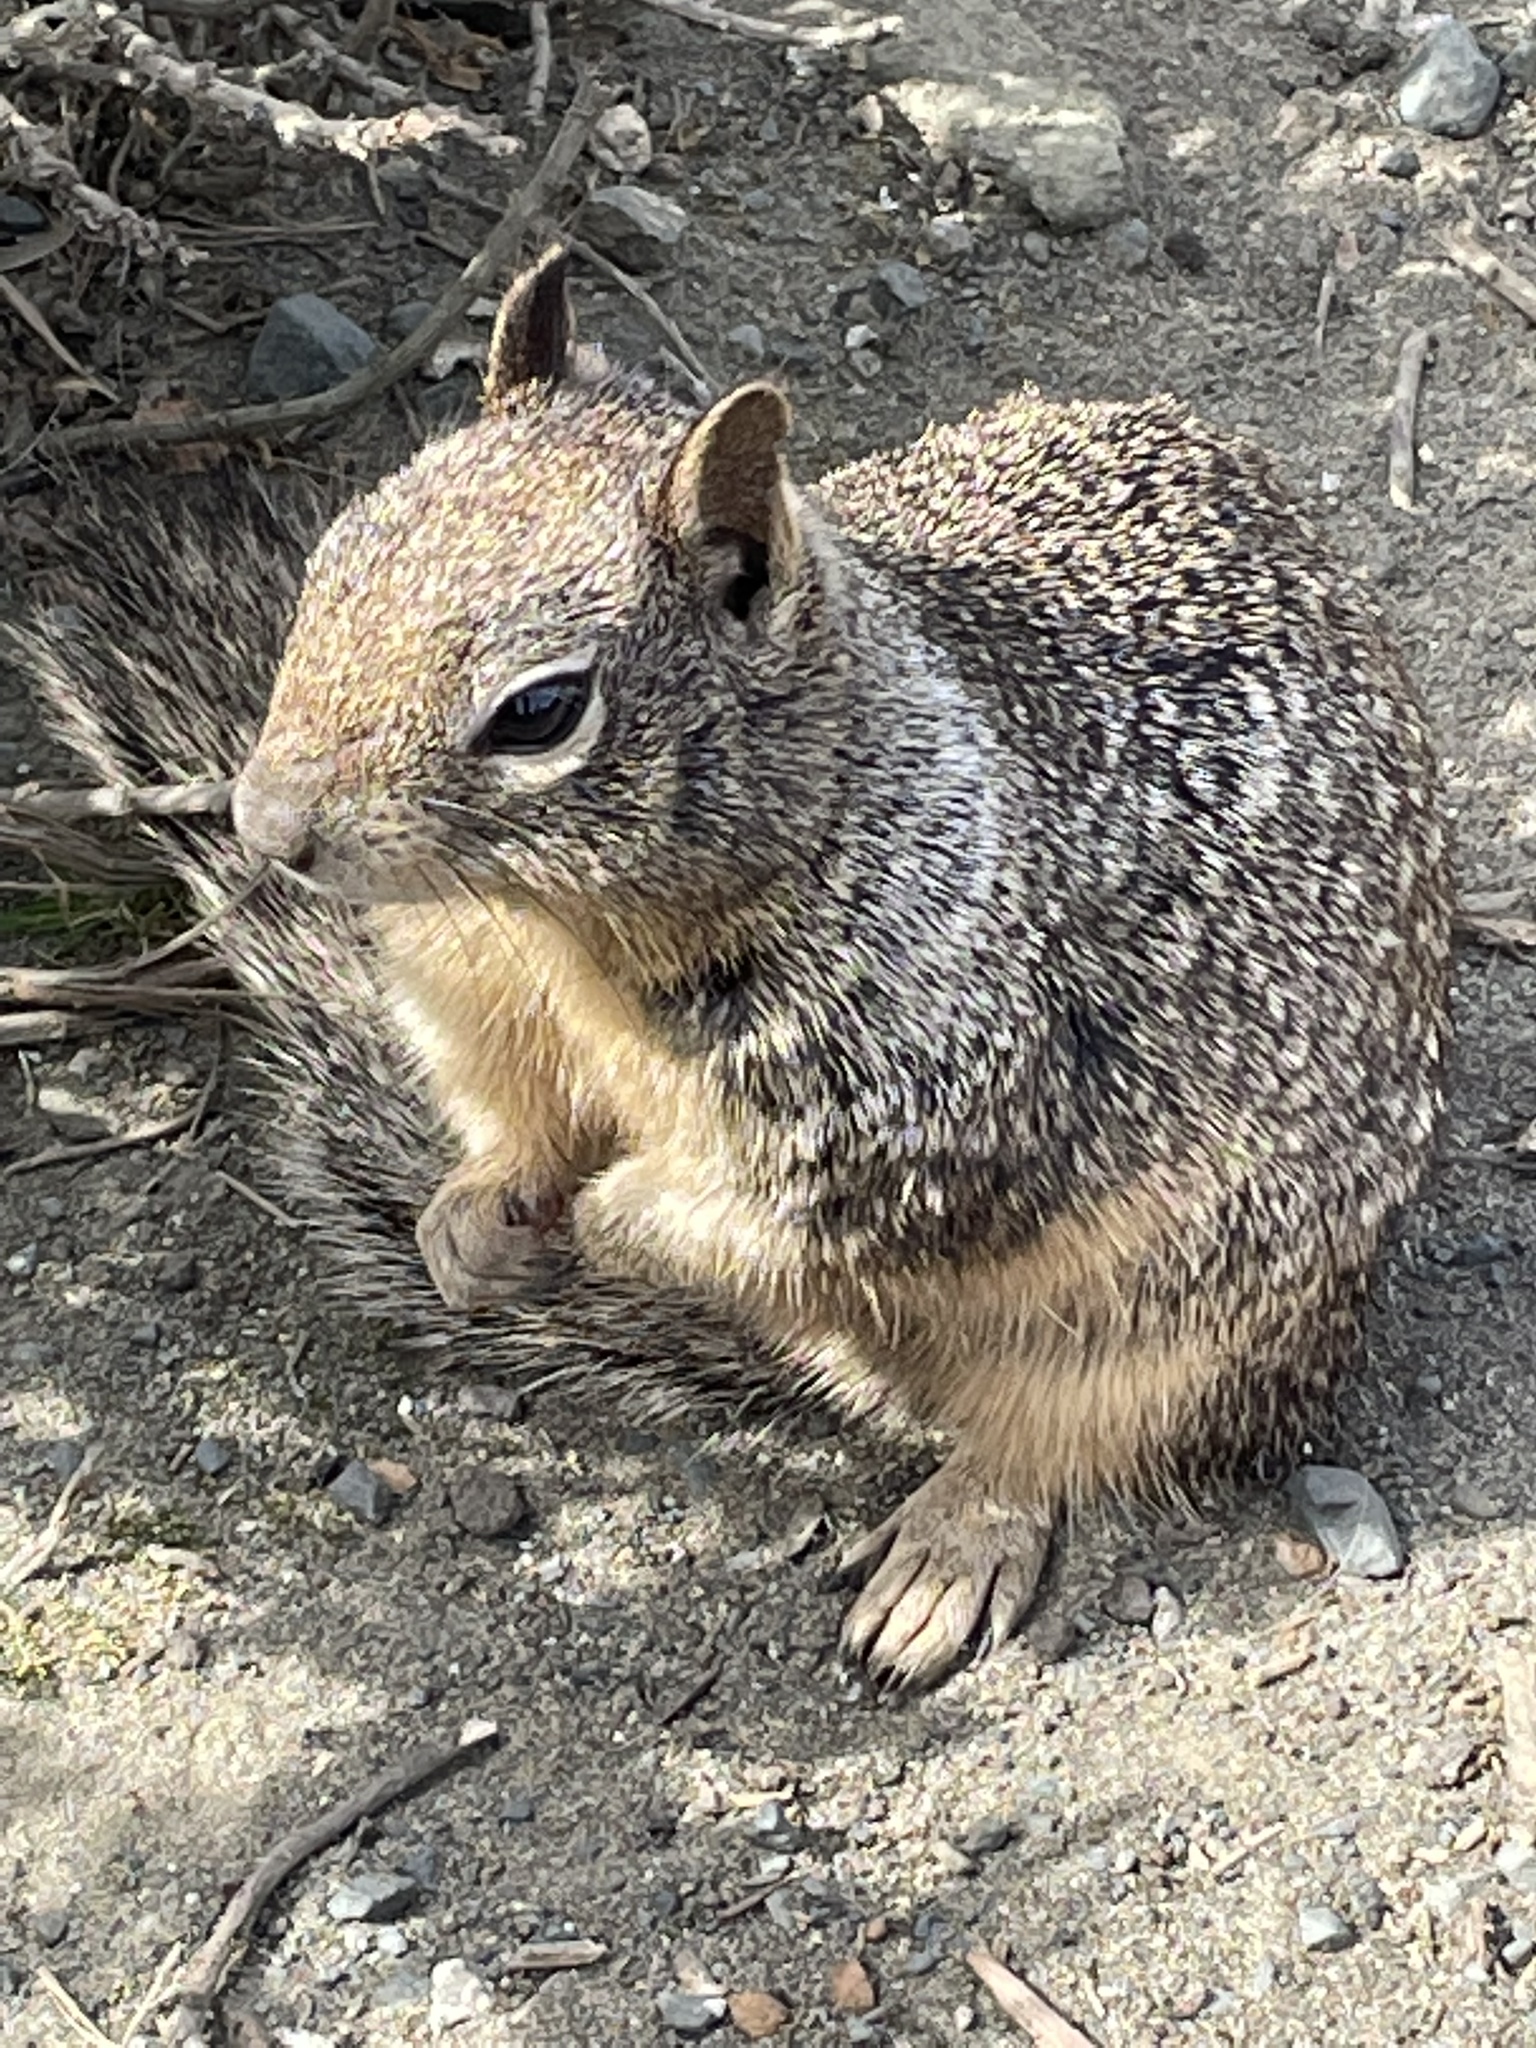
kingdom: Animalia
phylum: Chordata
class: Mammalia
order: Rodentia
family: Sciuridae
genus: Otospermophilus
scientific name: Otospermophilus beecheyi
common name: California ground squirrel
